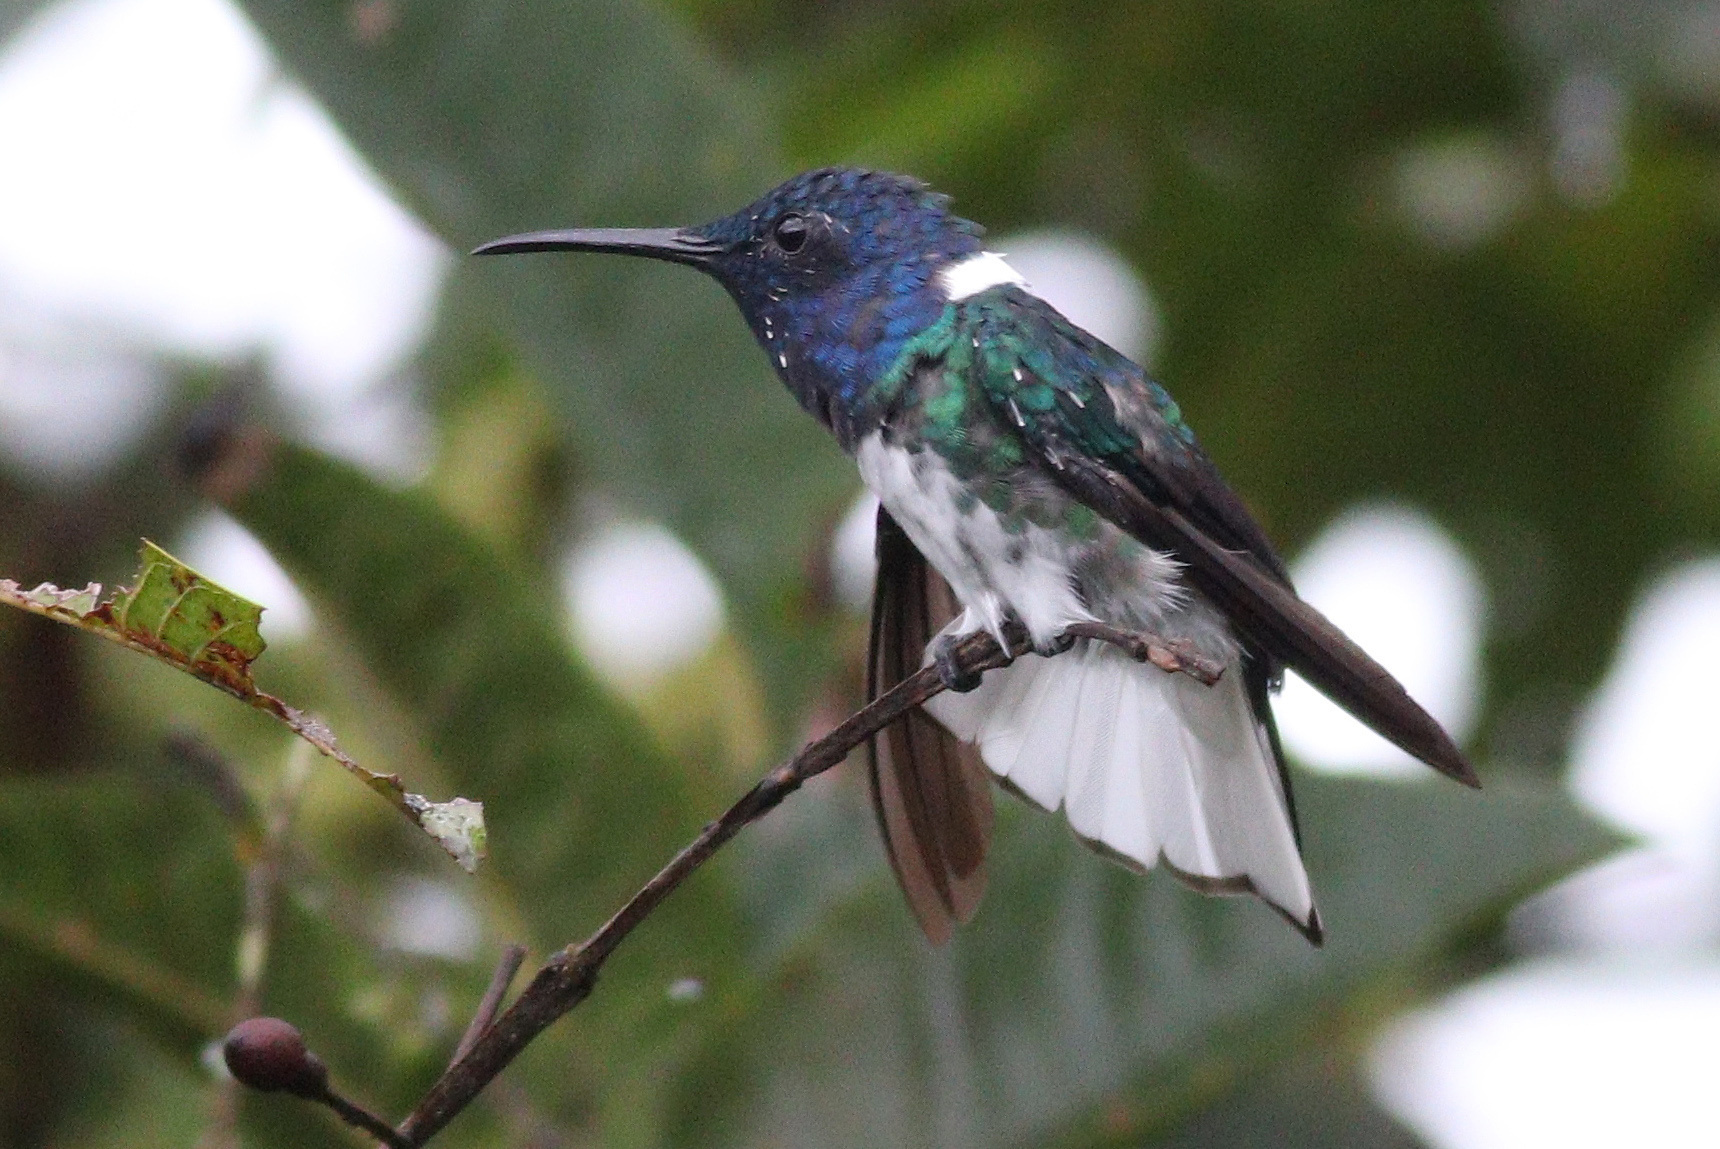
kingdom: Animalia
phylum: Chordata
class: Aves
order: Apodiformes
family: Trochilidae
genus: Florisuga
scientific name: Florisuga mellivora
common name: White-necked jacobin
